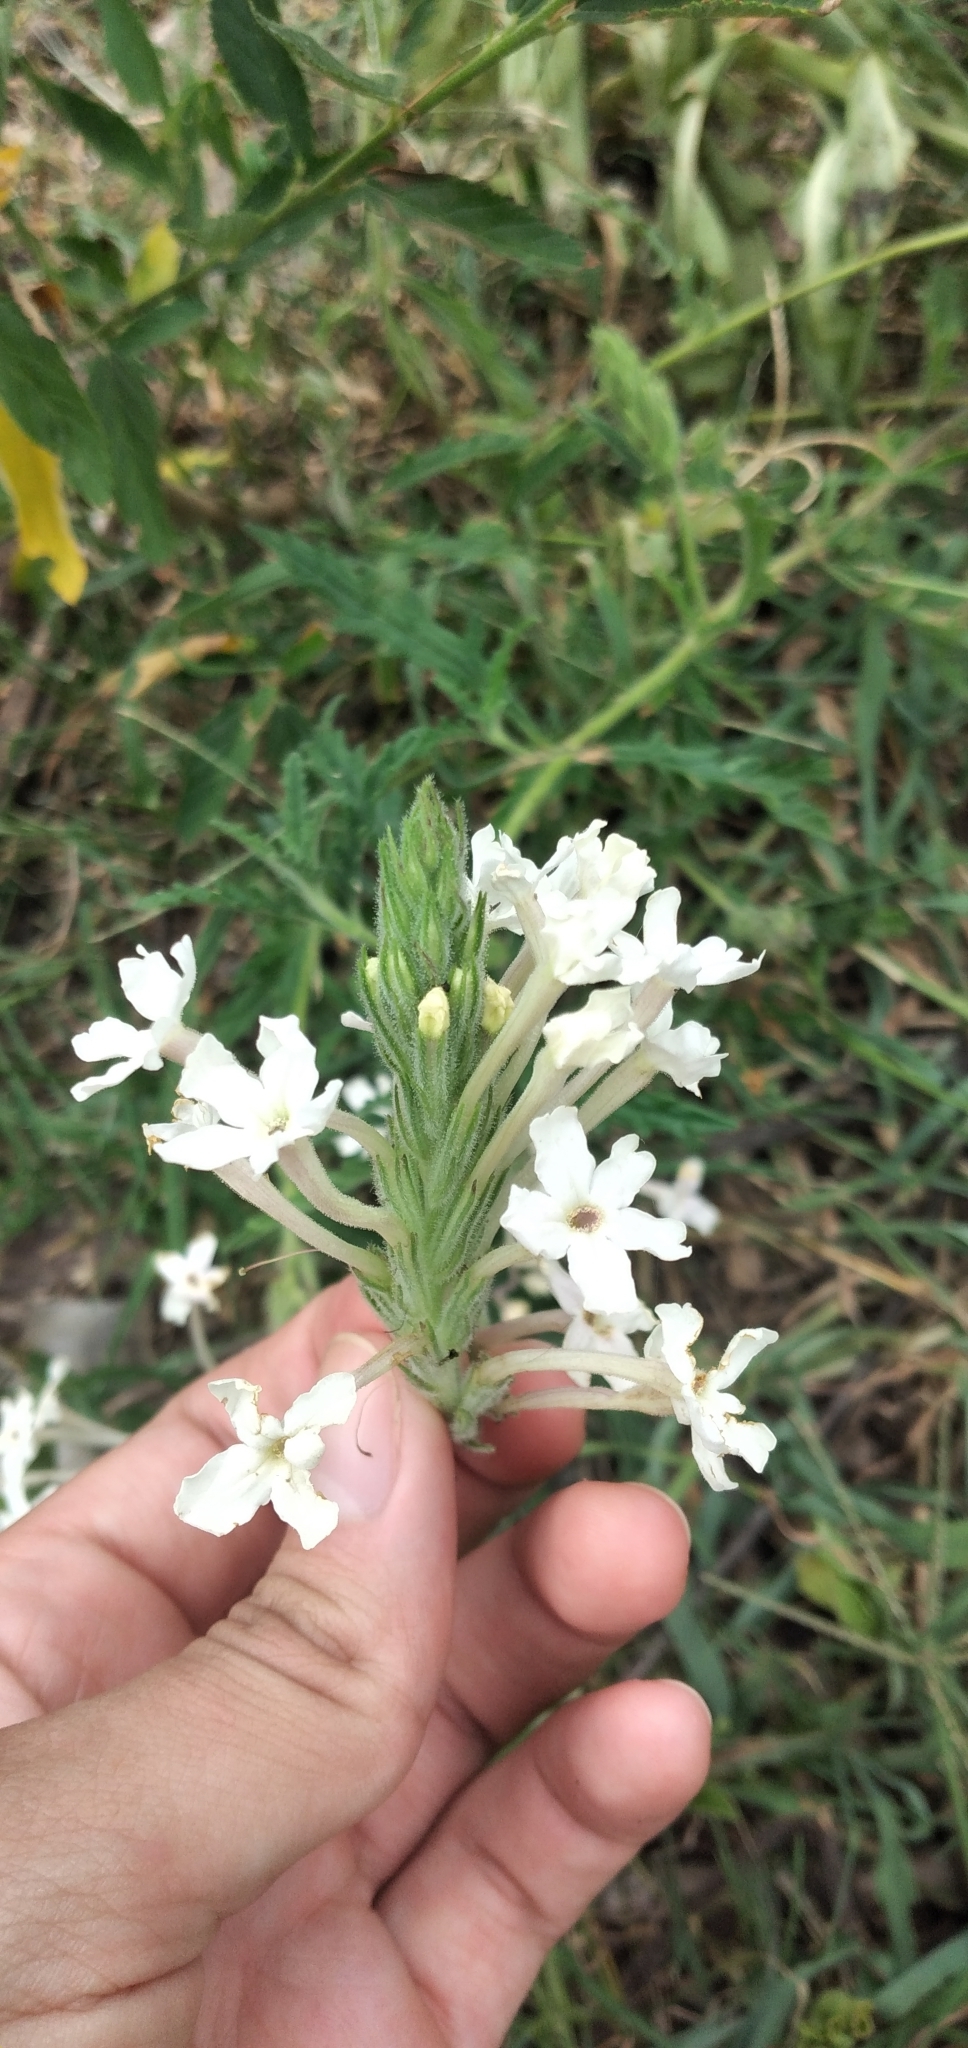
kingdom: Plantae
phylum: Tracheophyta
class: Magnoliopsida
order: Lamiales
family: Verbenaceae
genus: Verbena
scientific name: Verbena platensis
